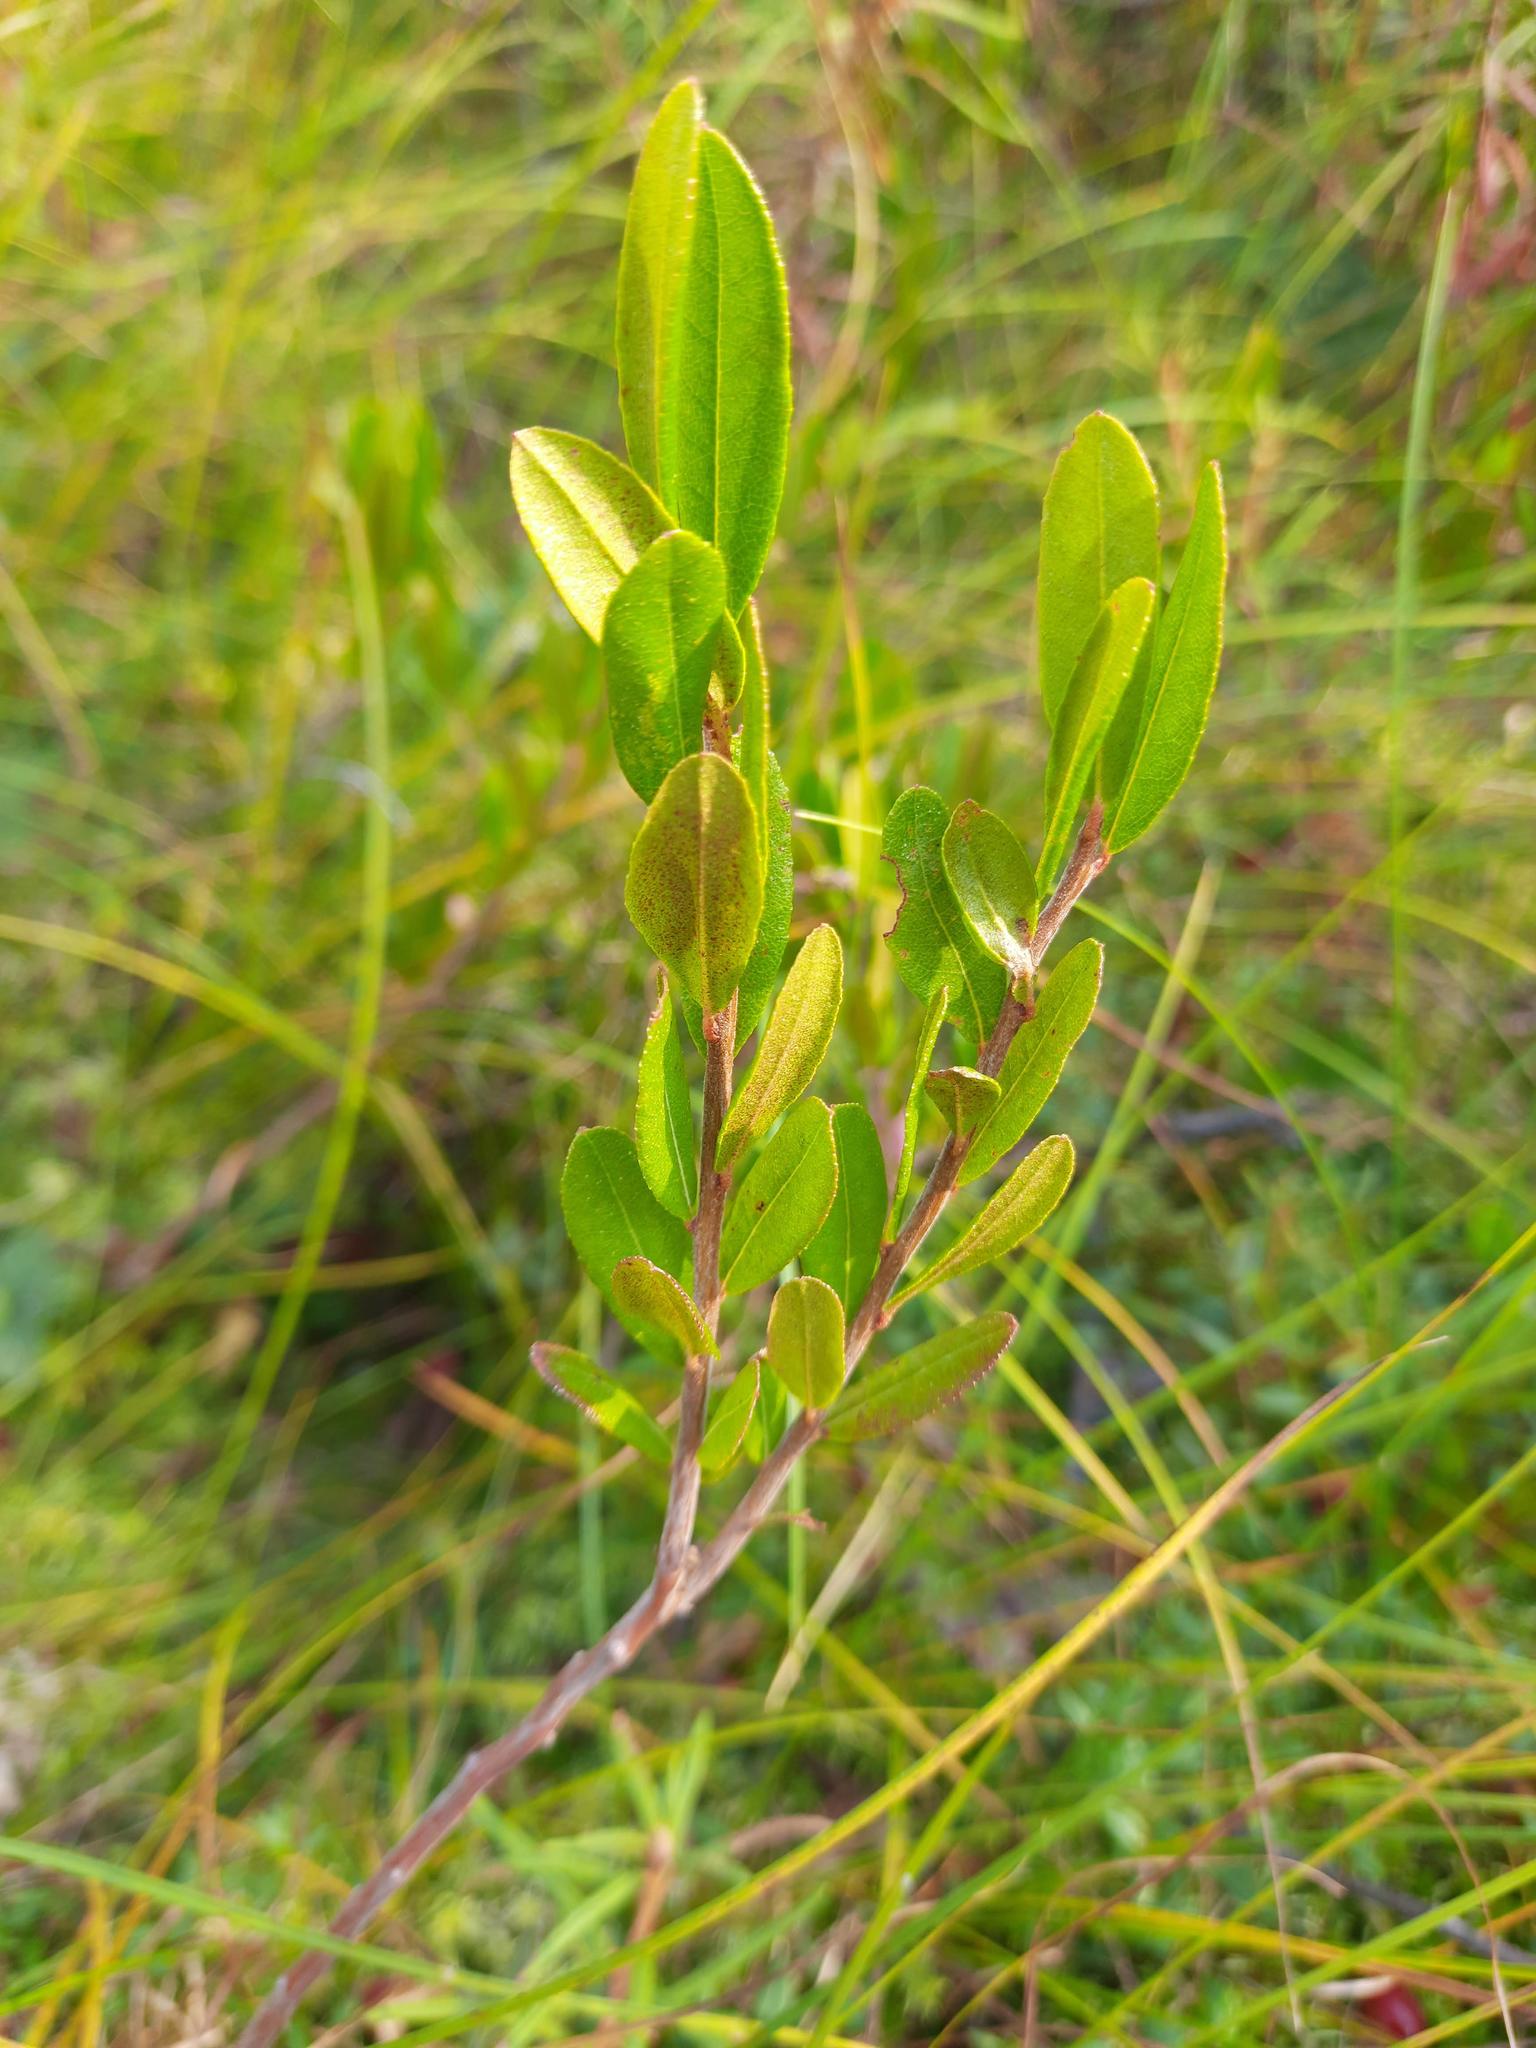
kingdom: Plantae
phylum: Tracheophyta
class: Magnoliopsida
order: Ericales
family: Ericaceae
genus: Chamaedaphne
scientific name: Chamaedaphne calyculata
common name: Leatherleaf
